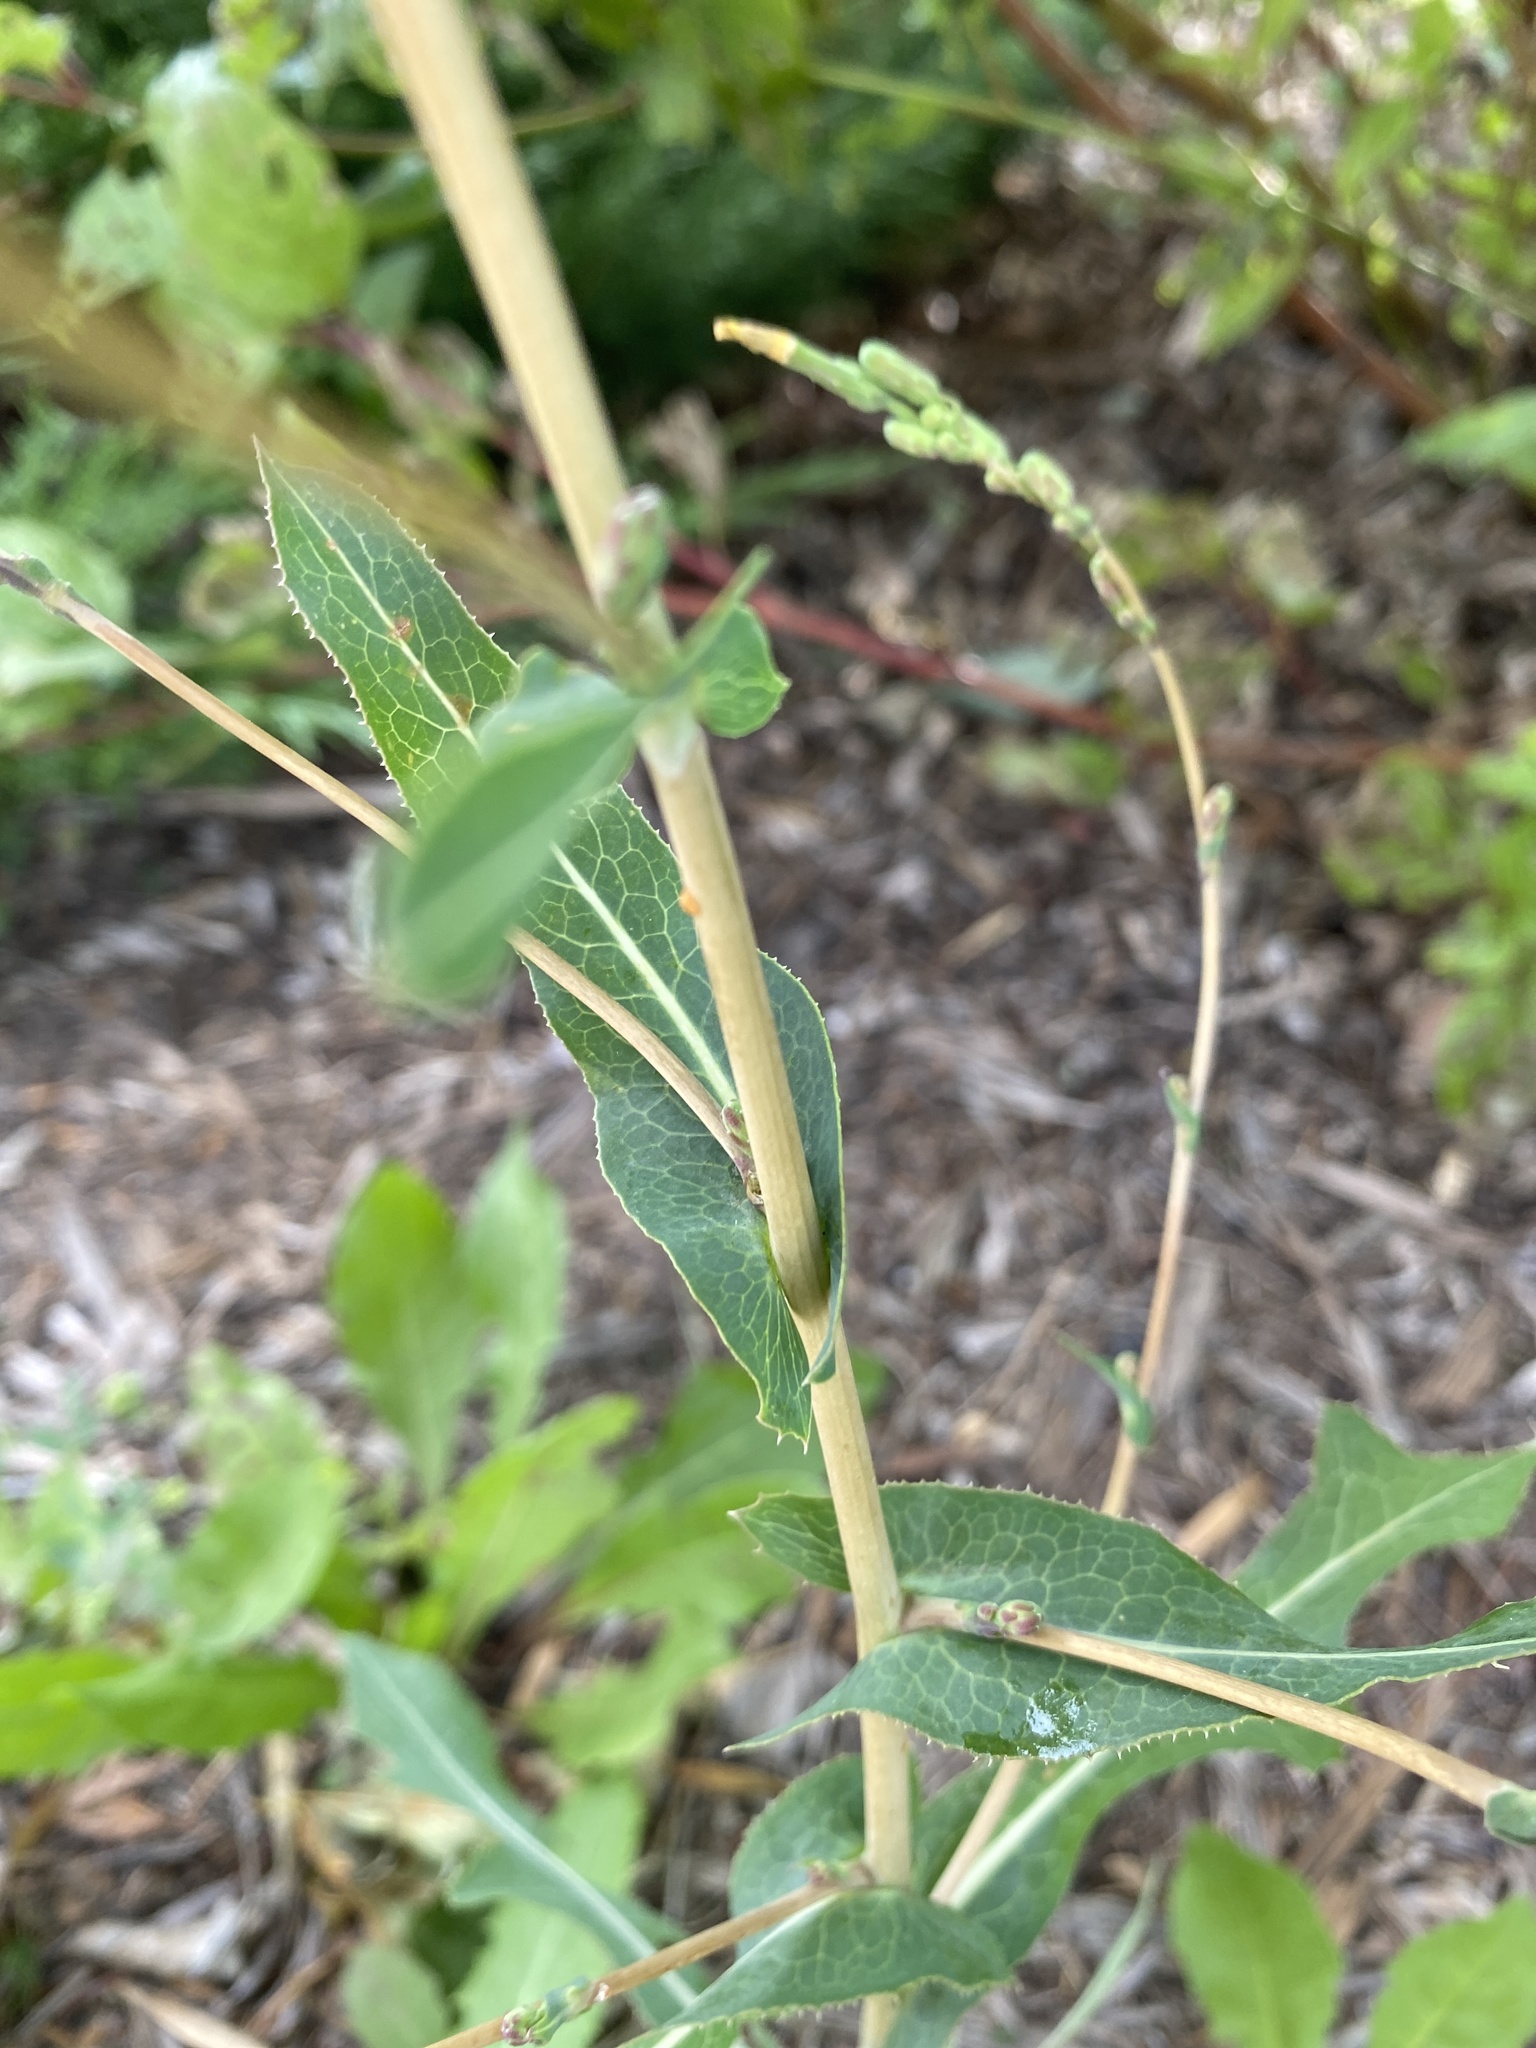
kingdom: Plantae
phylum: Tracheophyta
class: Magnoliopsida
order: Asterales
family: Asteraceae
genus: Lactuca
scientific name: Lactuca serriola
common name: Prickly lettuce
